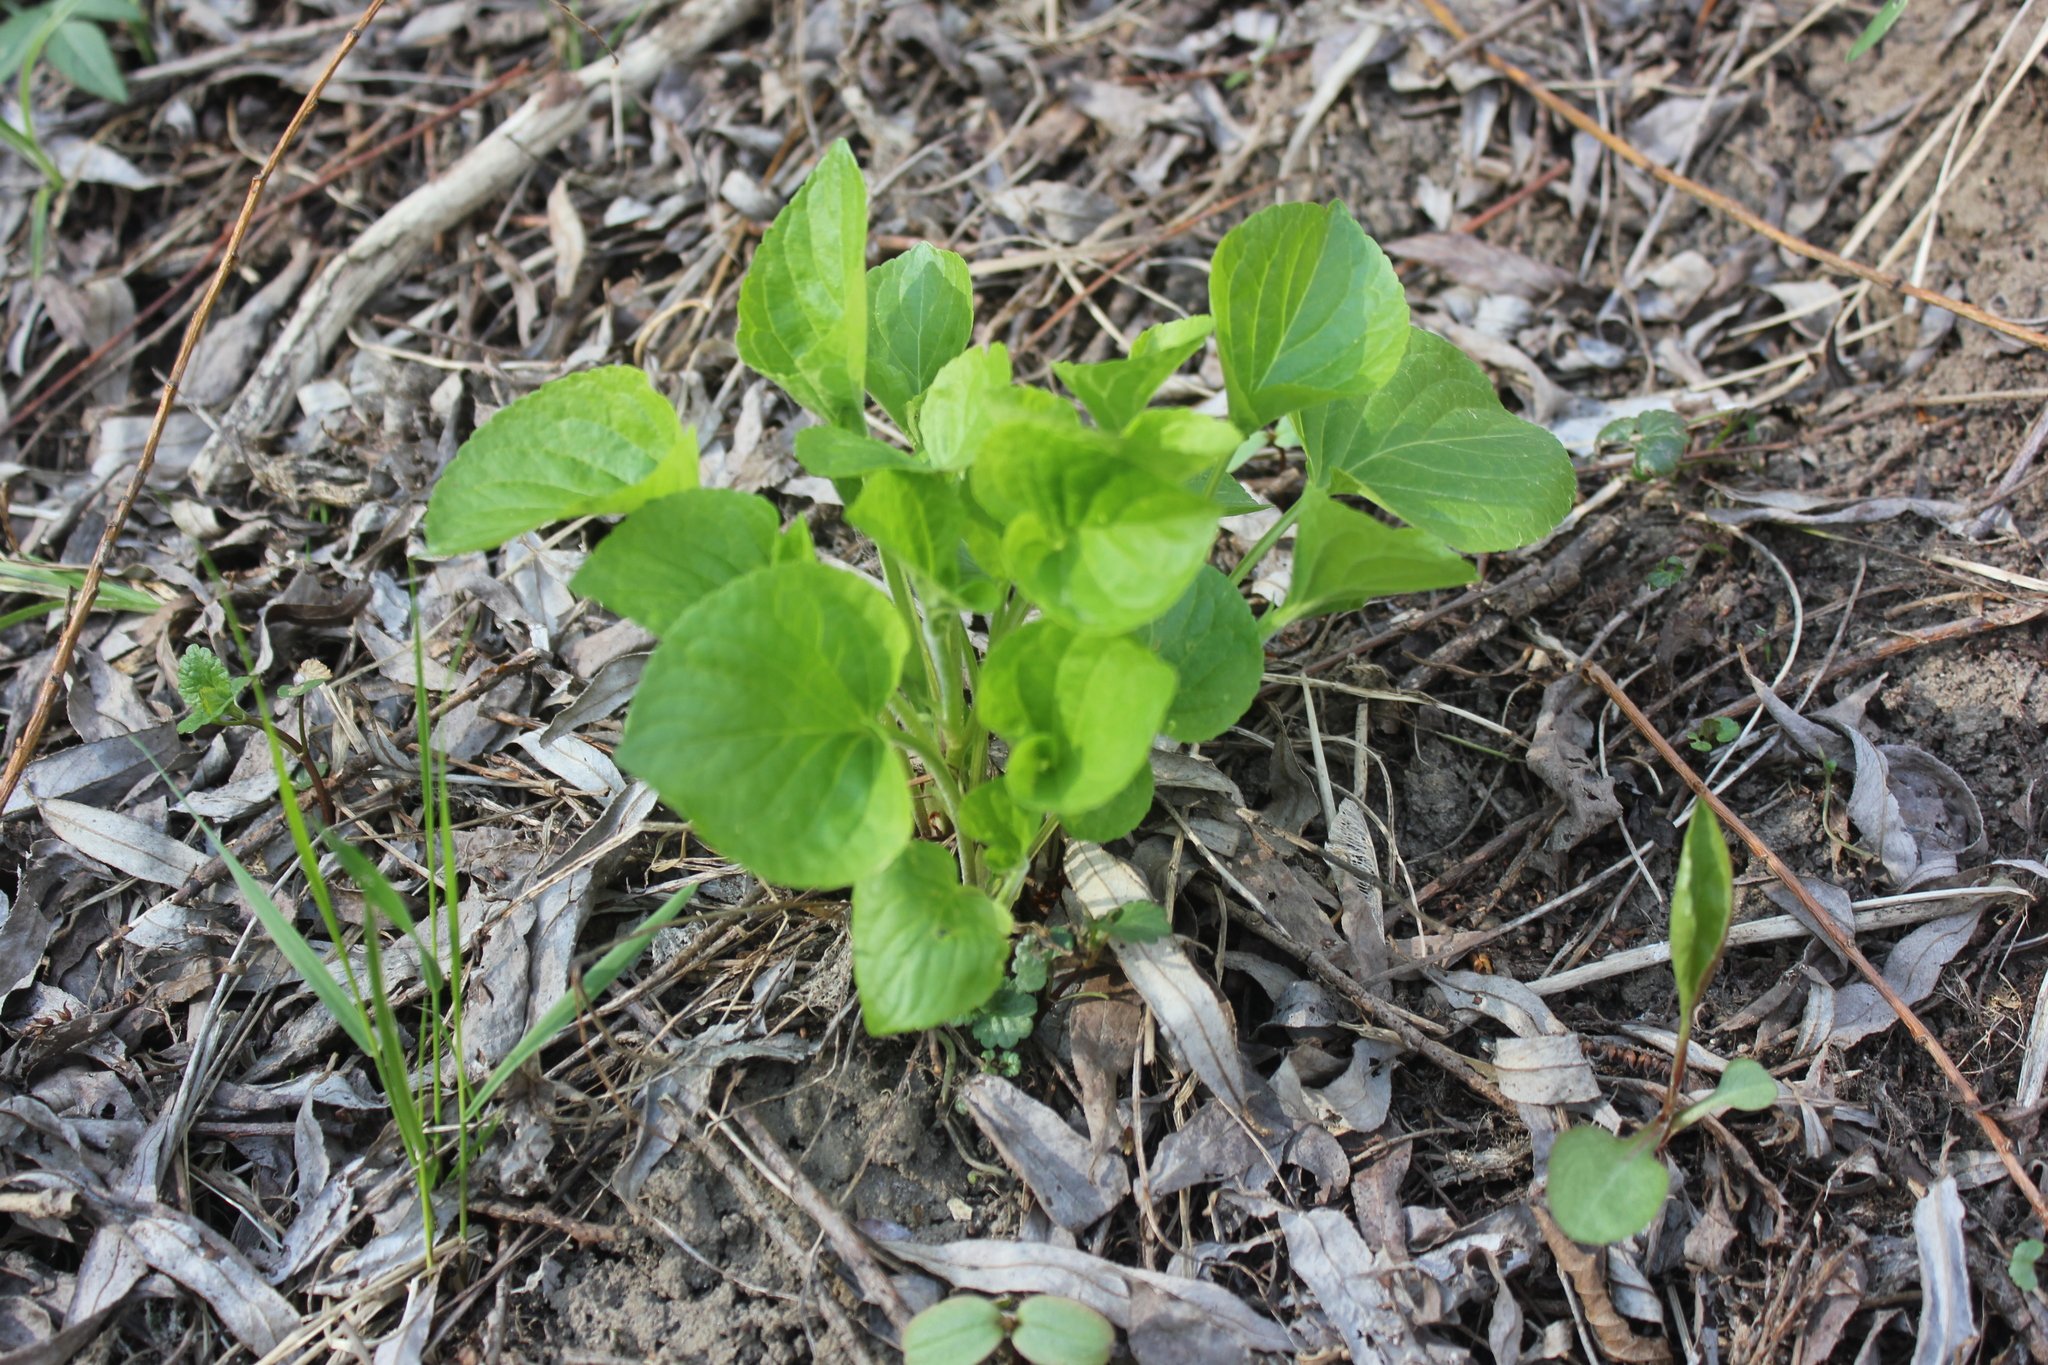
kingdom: Plantae
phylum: Tracheophyta
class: Magnoliopsida
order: Malpighiales
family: Violaceae
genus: Viola
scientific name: Viola mirabilis
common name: Wonder violet
